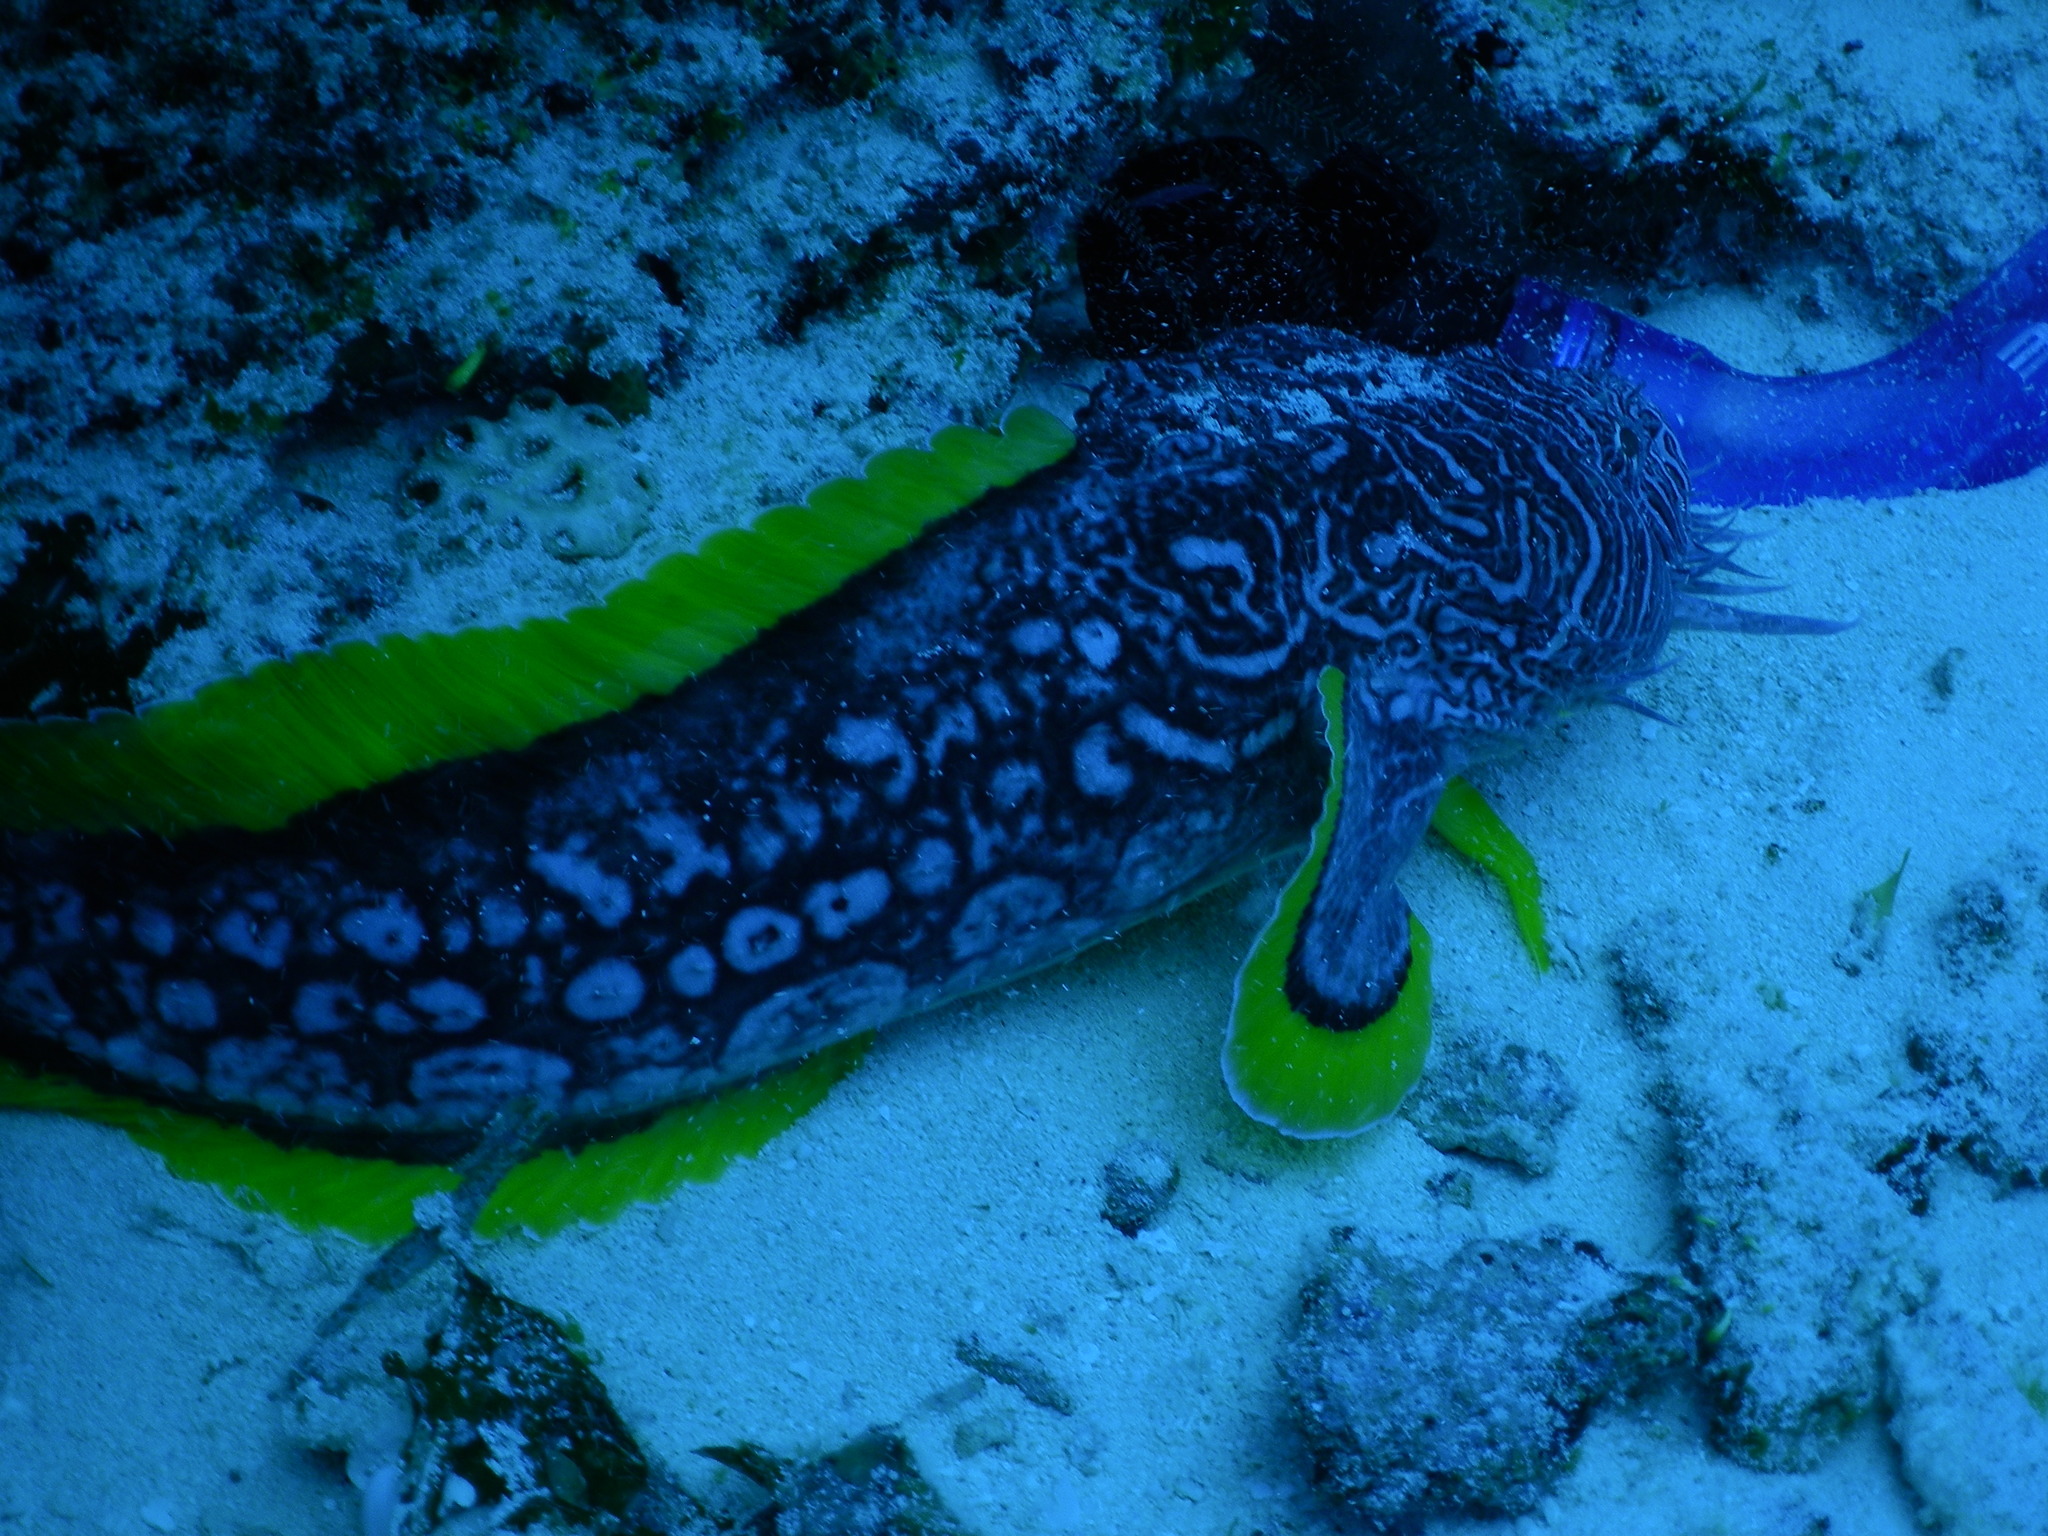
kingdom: Animalia
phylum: Chordata
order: Batrachoidiformes
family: Batrachoididae
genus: Sanopus
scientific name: Sanopus splendidus
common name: Splendid toadfish
